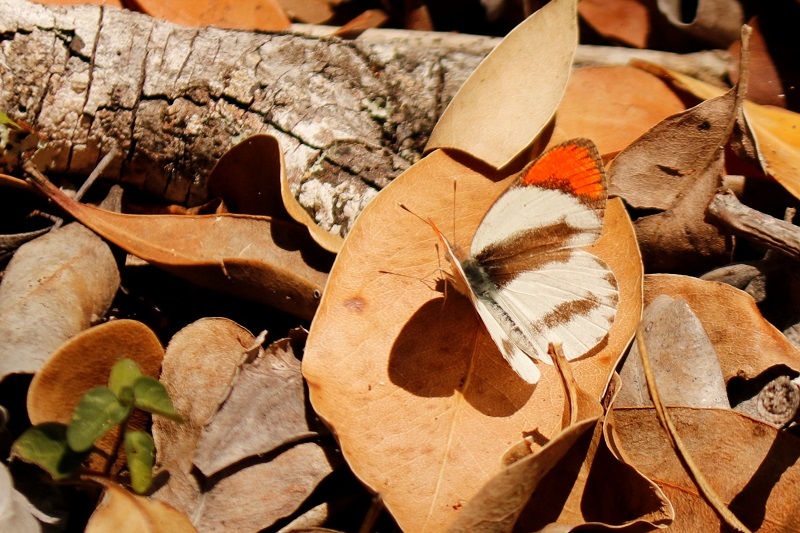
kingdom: Animalia
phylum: Arthropoda
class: Insecta
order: Lepidoptera
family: Pieridae
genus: Colotis
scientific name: Colotis euippe
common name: Round-winged orange tip
